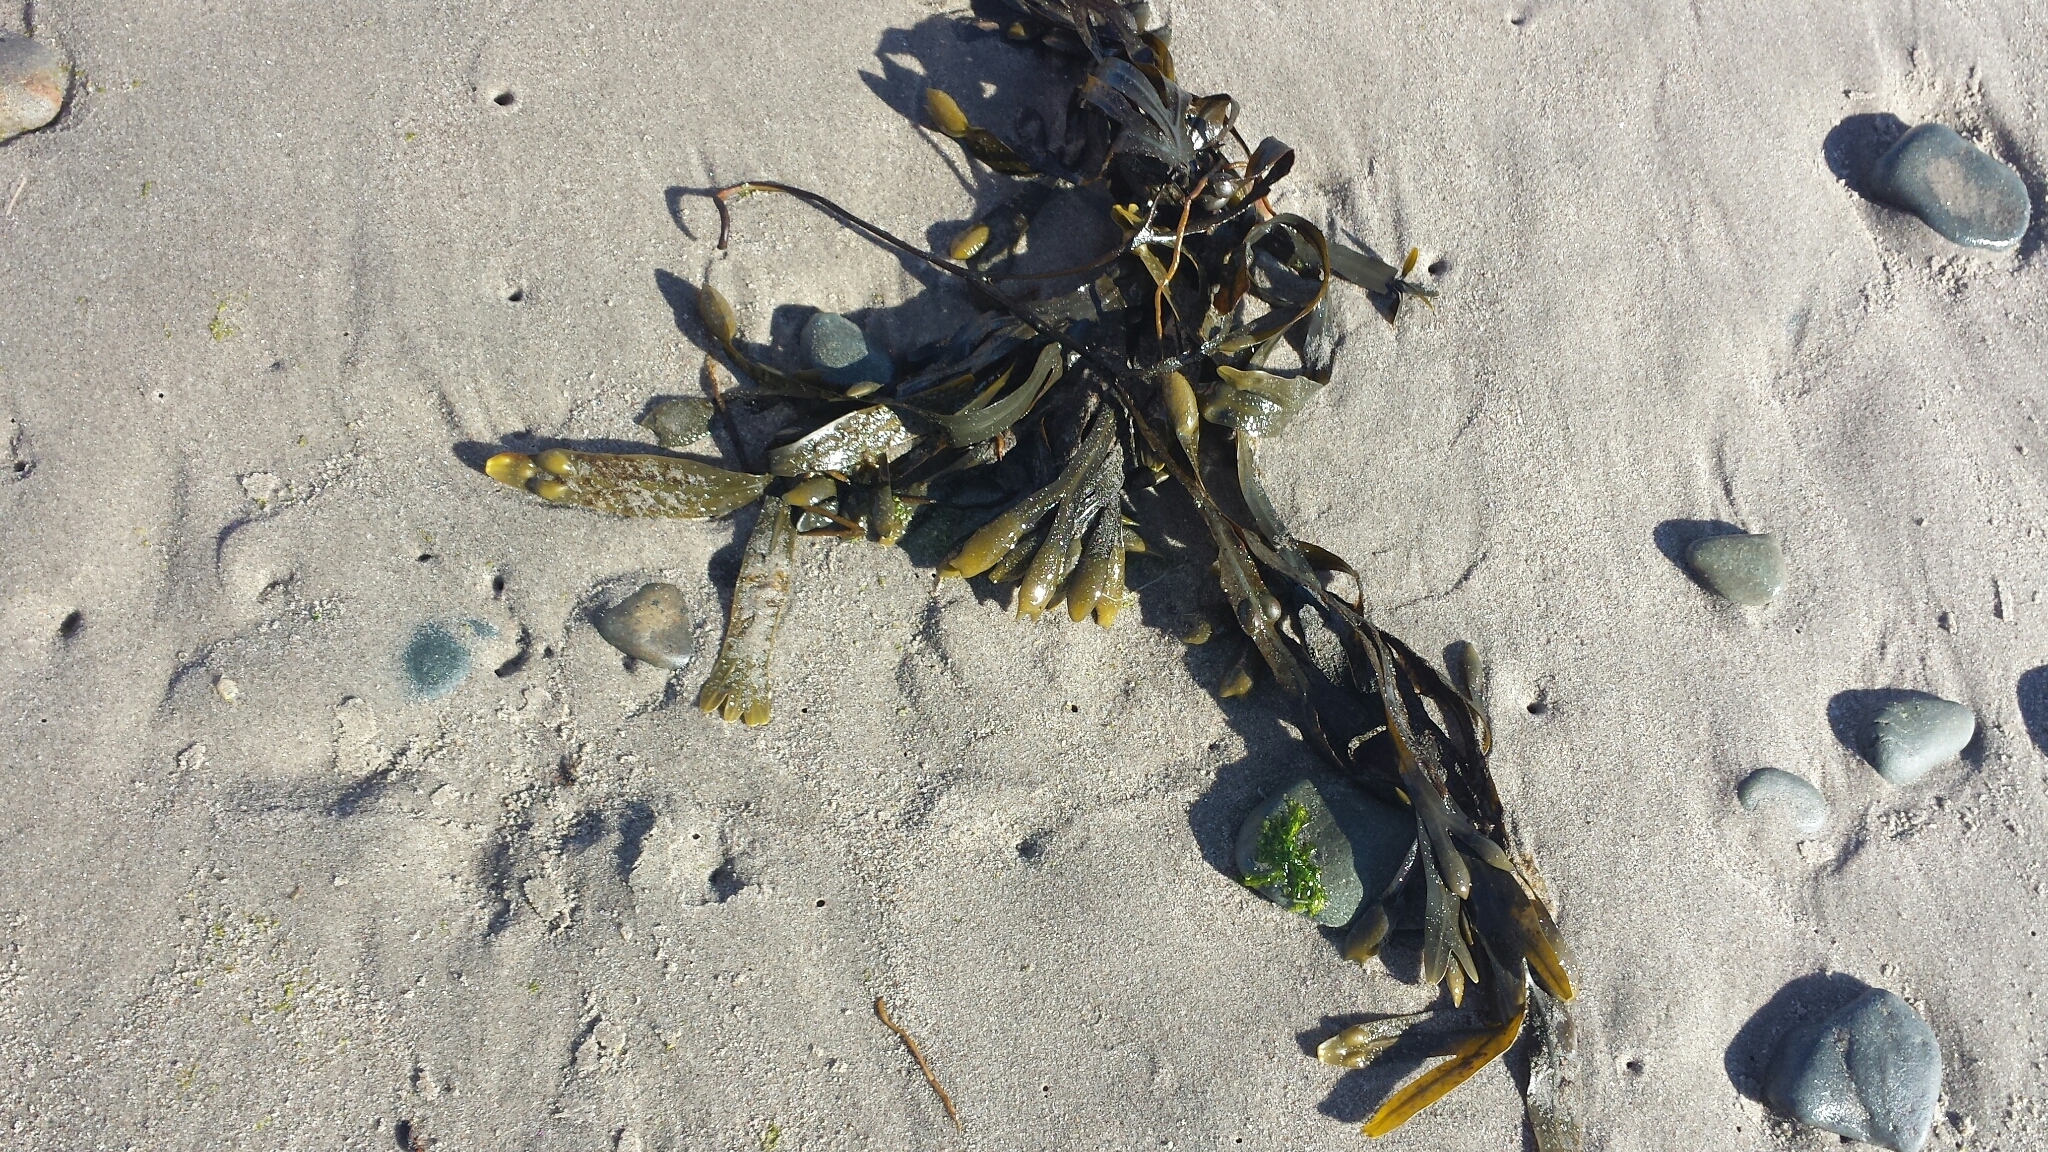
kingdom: Chromista
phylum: Ochrophyta
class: Phaeophyceae
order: Fucales
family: Fucaceae
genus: Fucus
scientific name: Fucus distichus
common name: Rockweed
